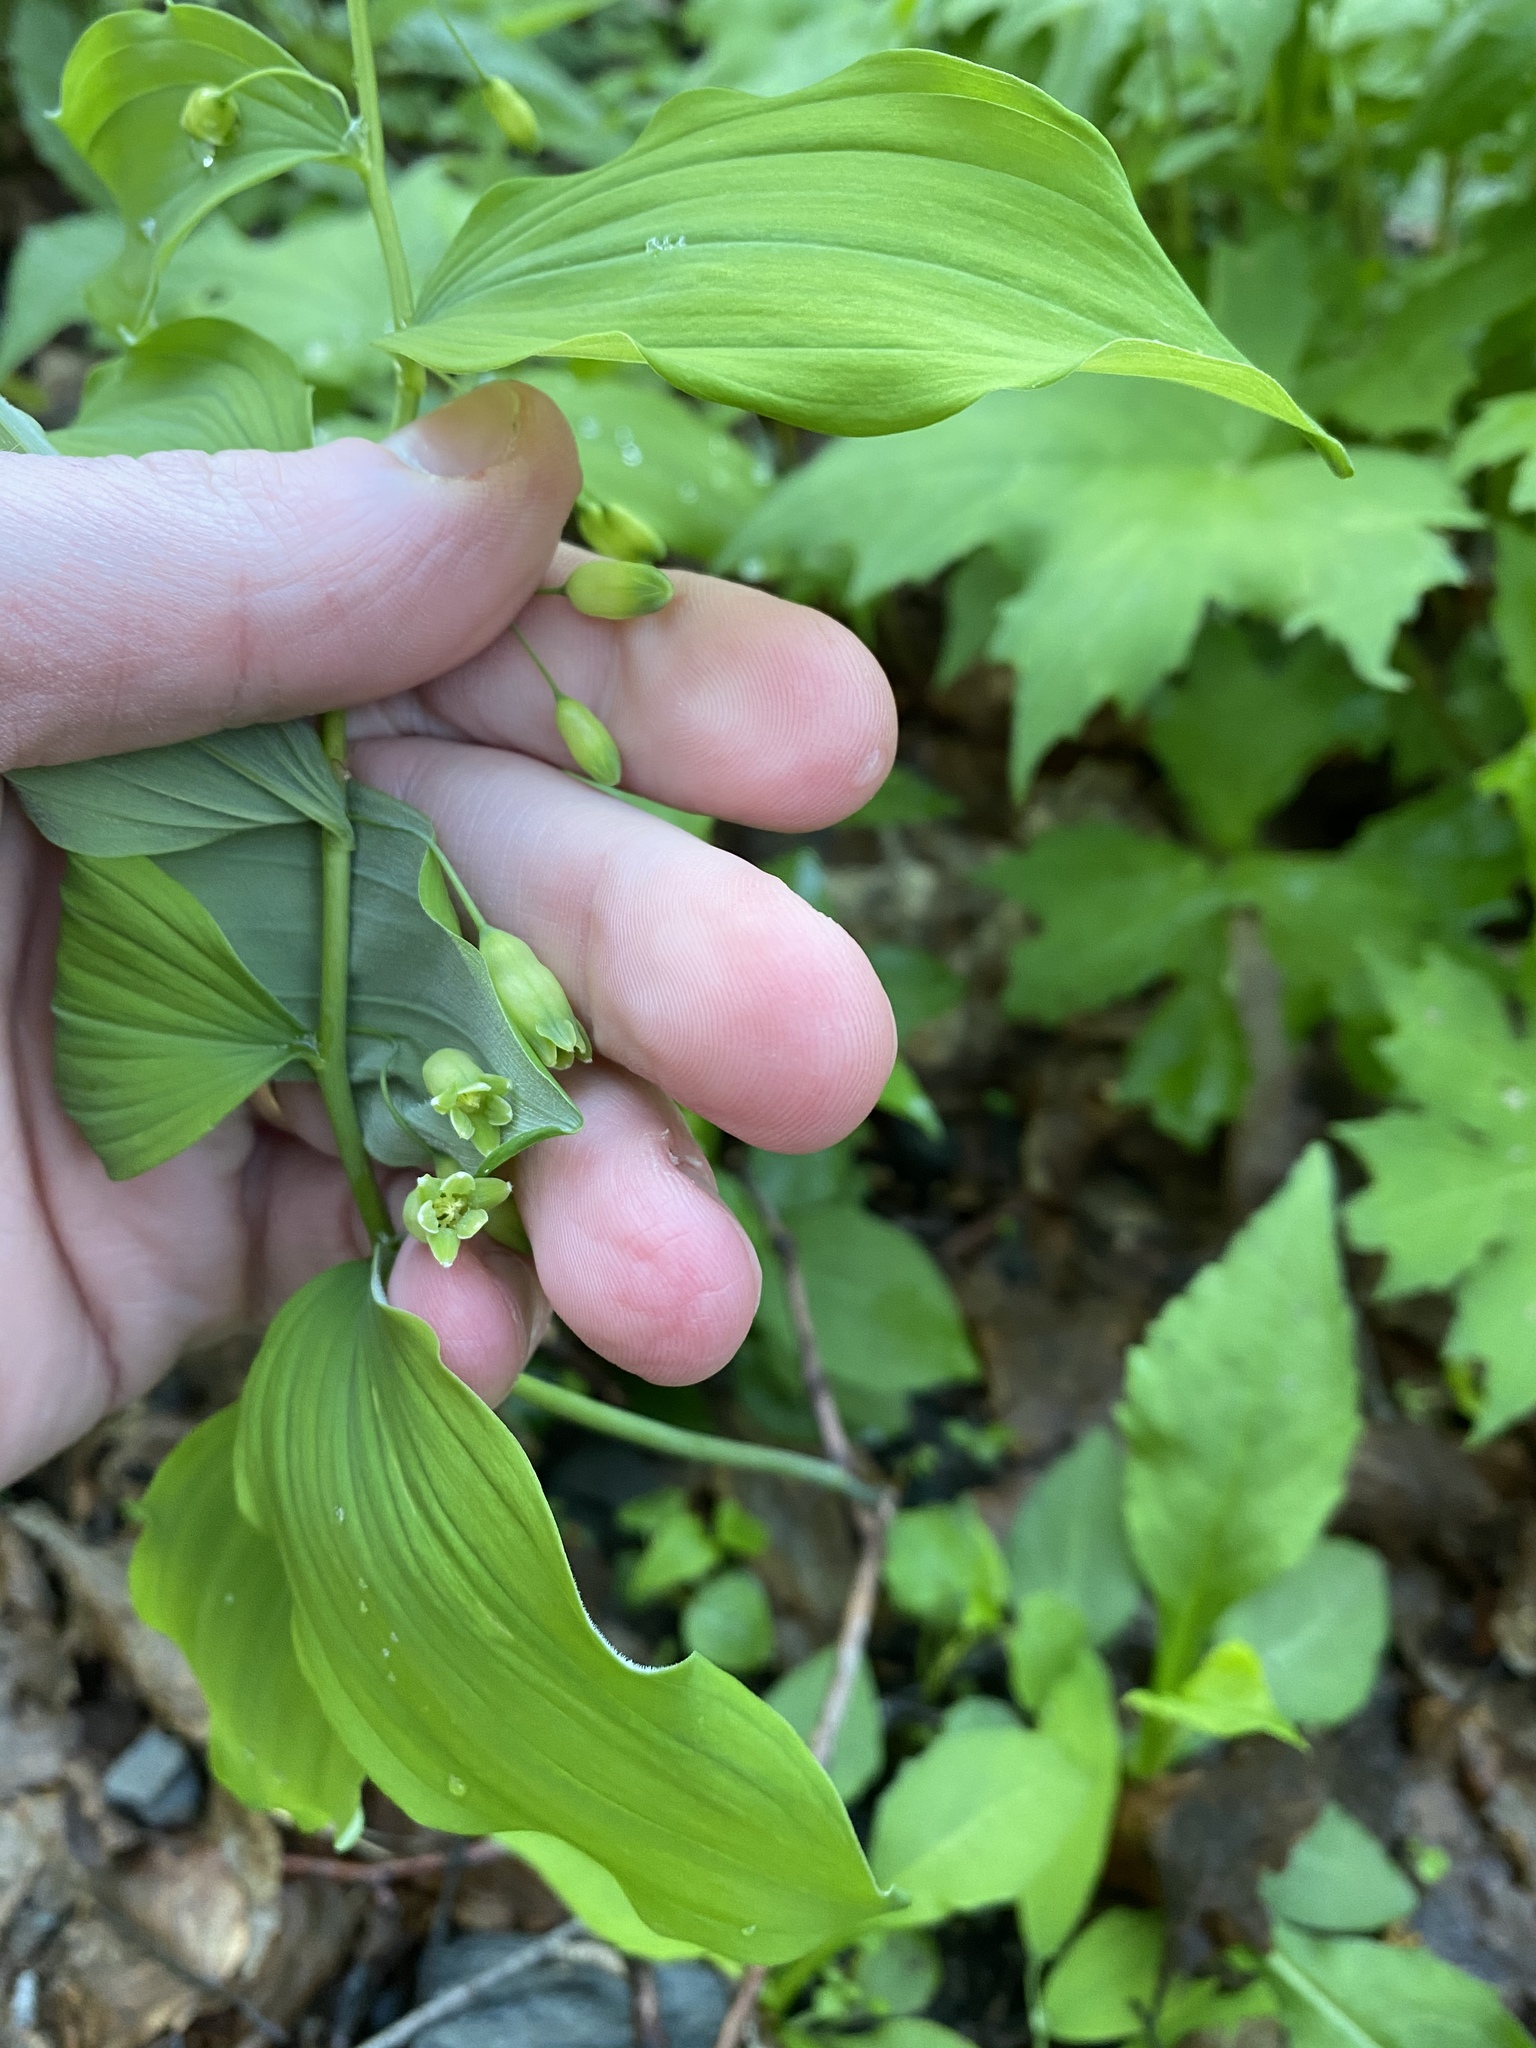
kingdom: Plantae
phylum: Tracheophyta
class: Liliopsida
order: Asparagales
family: Asparagaceae
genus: Polygonatum
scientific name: Polygonatum pubescens
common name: Downy solomon's seal
